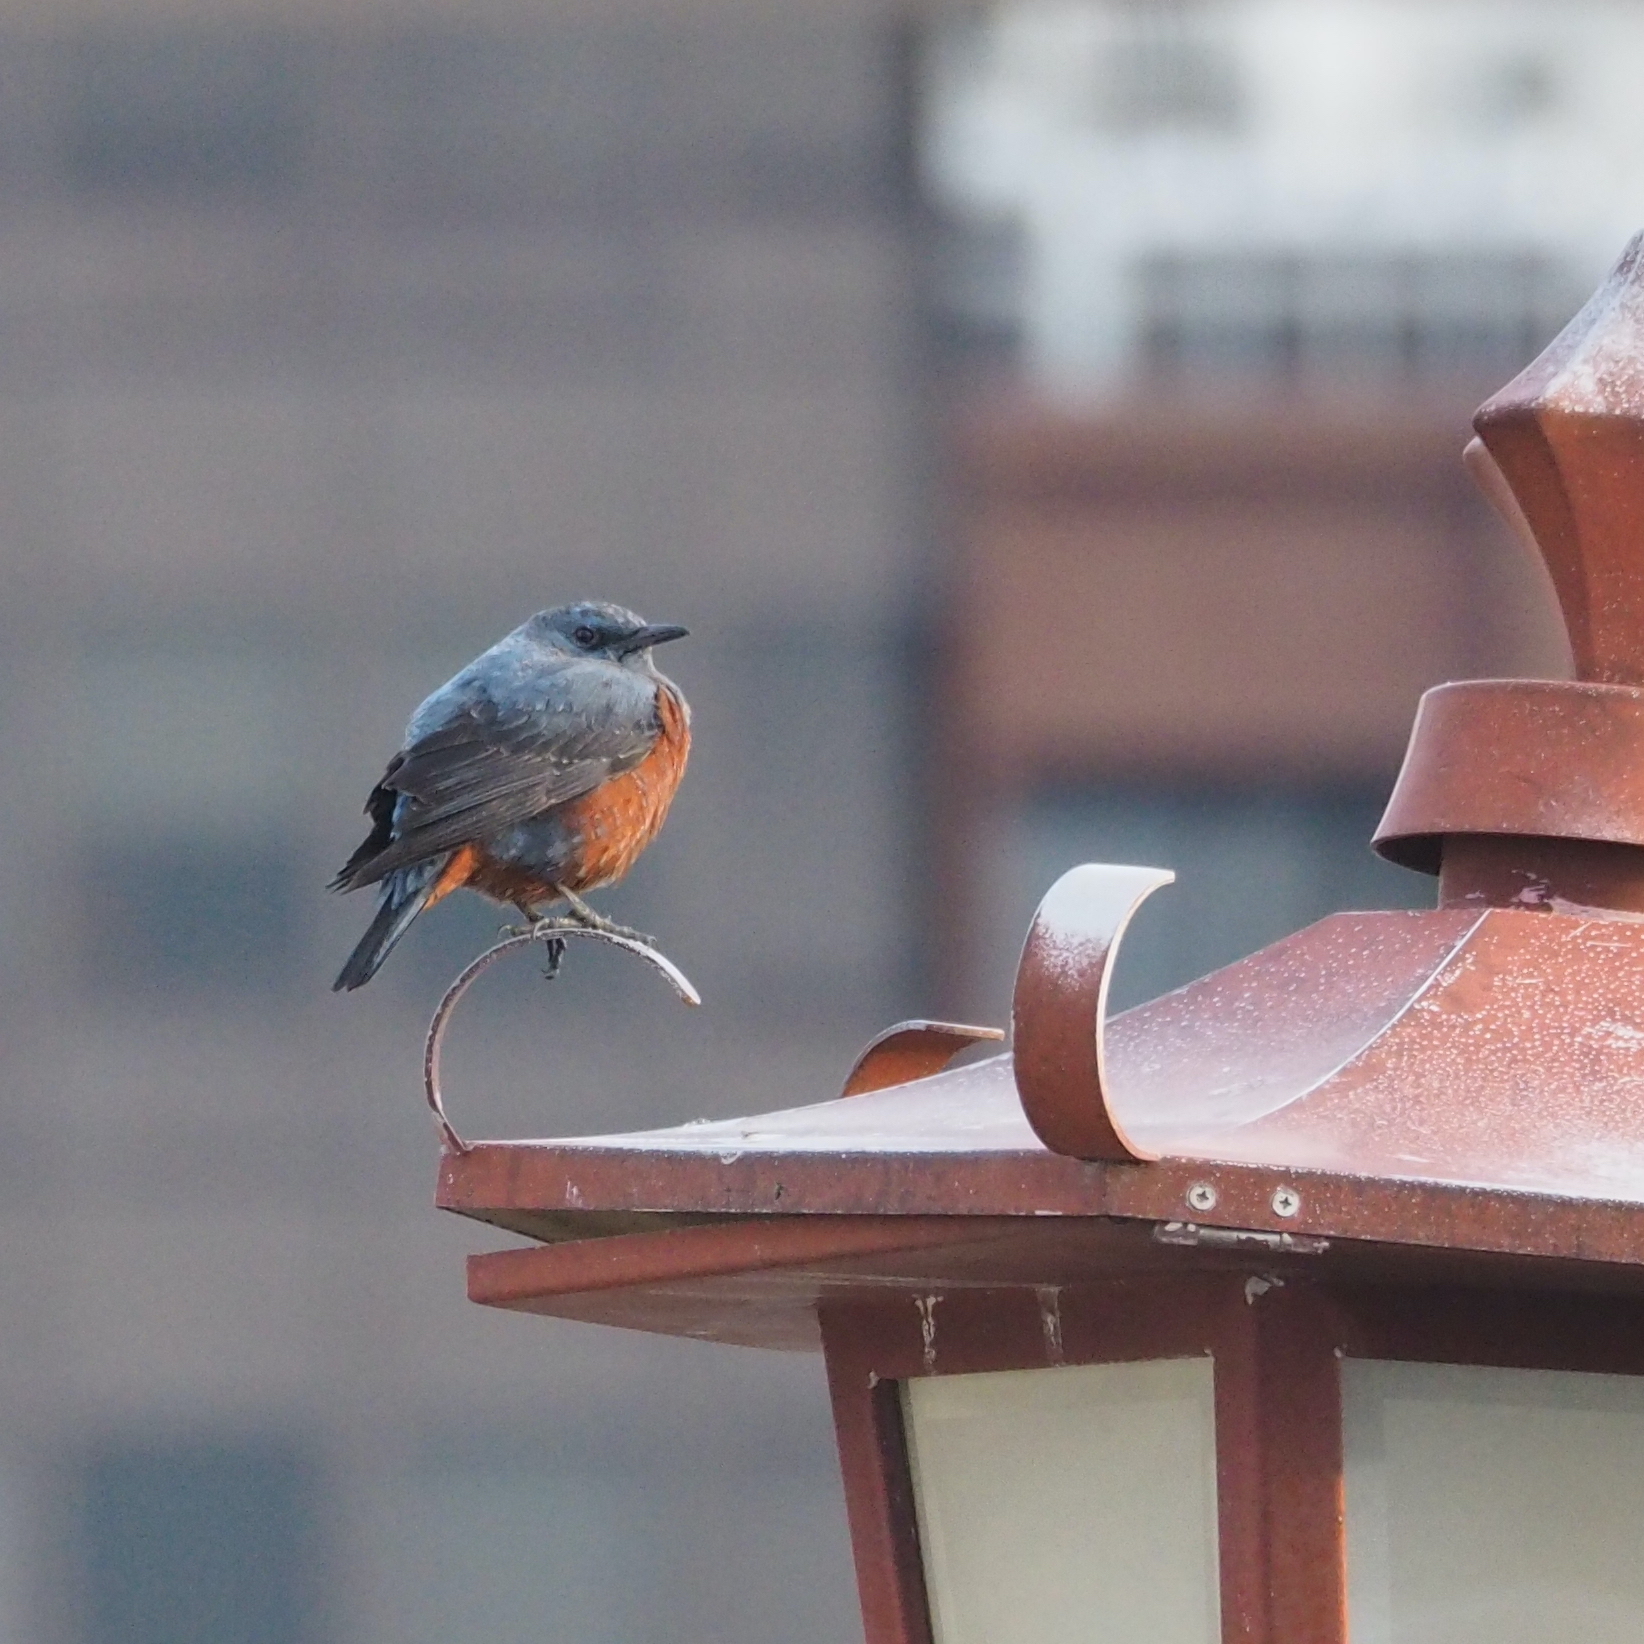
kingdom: Animalia
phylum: Chordata
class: Aves
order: Passeriformes
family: Muscicapidae
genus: Monticola
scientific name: Monticola solitarius
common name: Blue rock thrush
